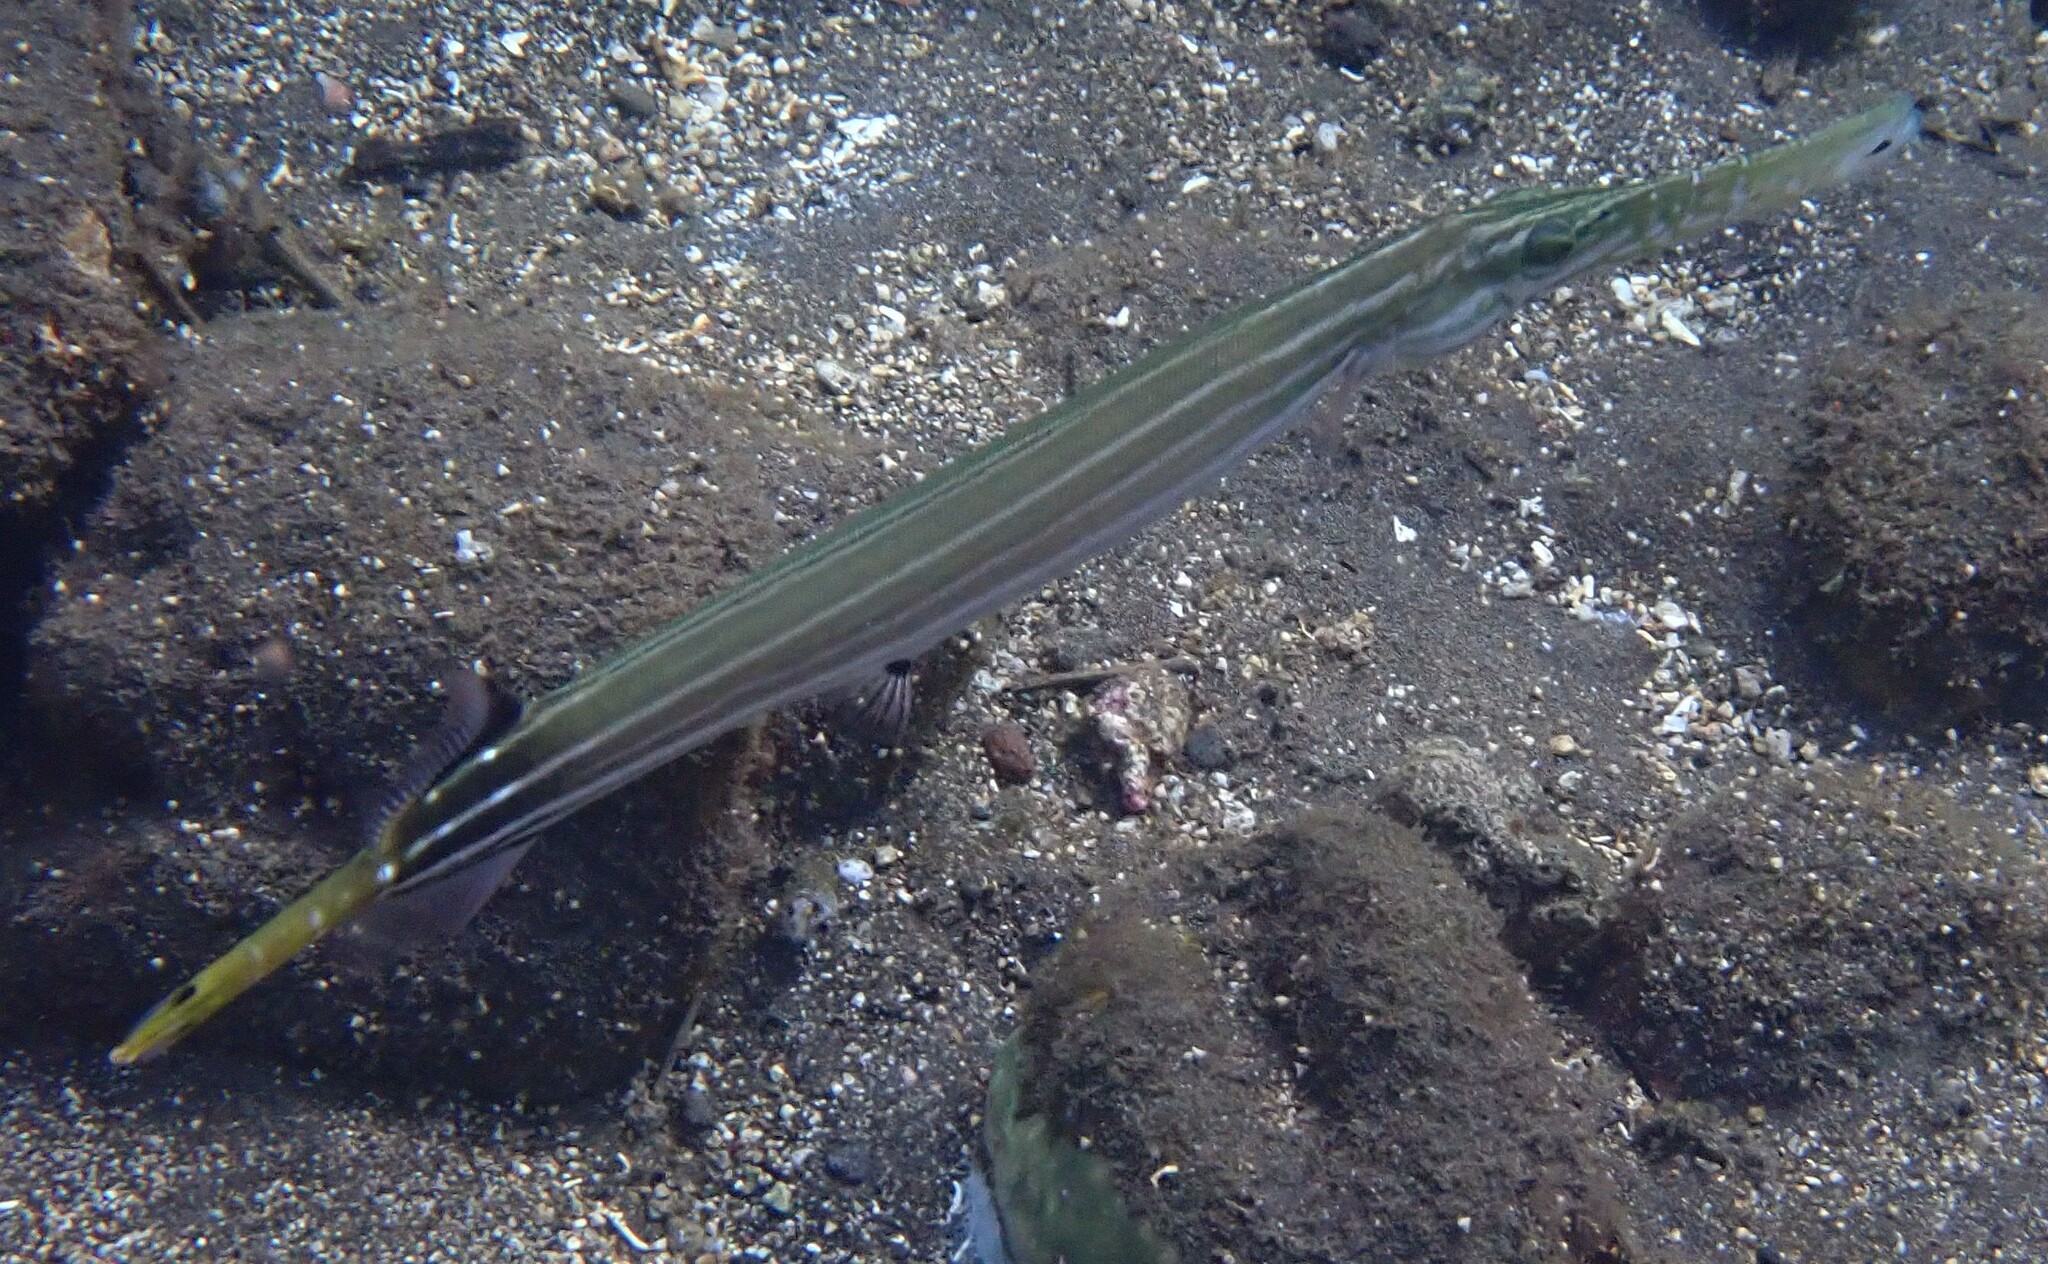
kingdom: Animalia
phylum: Chordata
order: Syngnathiformes
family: Aulostomidae
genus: Aulostomus
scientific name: Aulostomus chinensis
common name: Chinese trumpetfish
